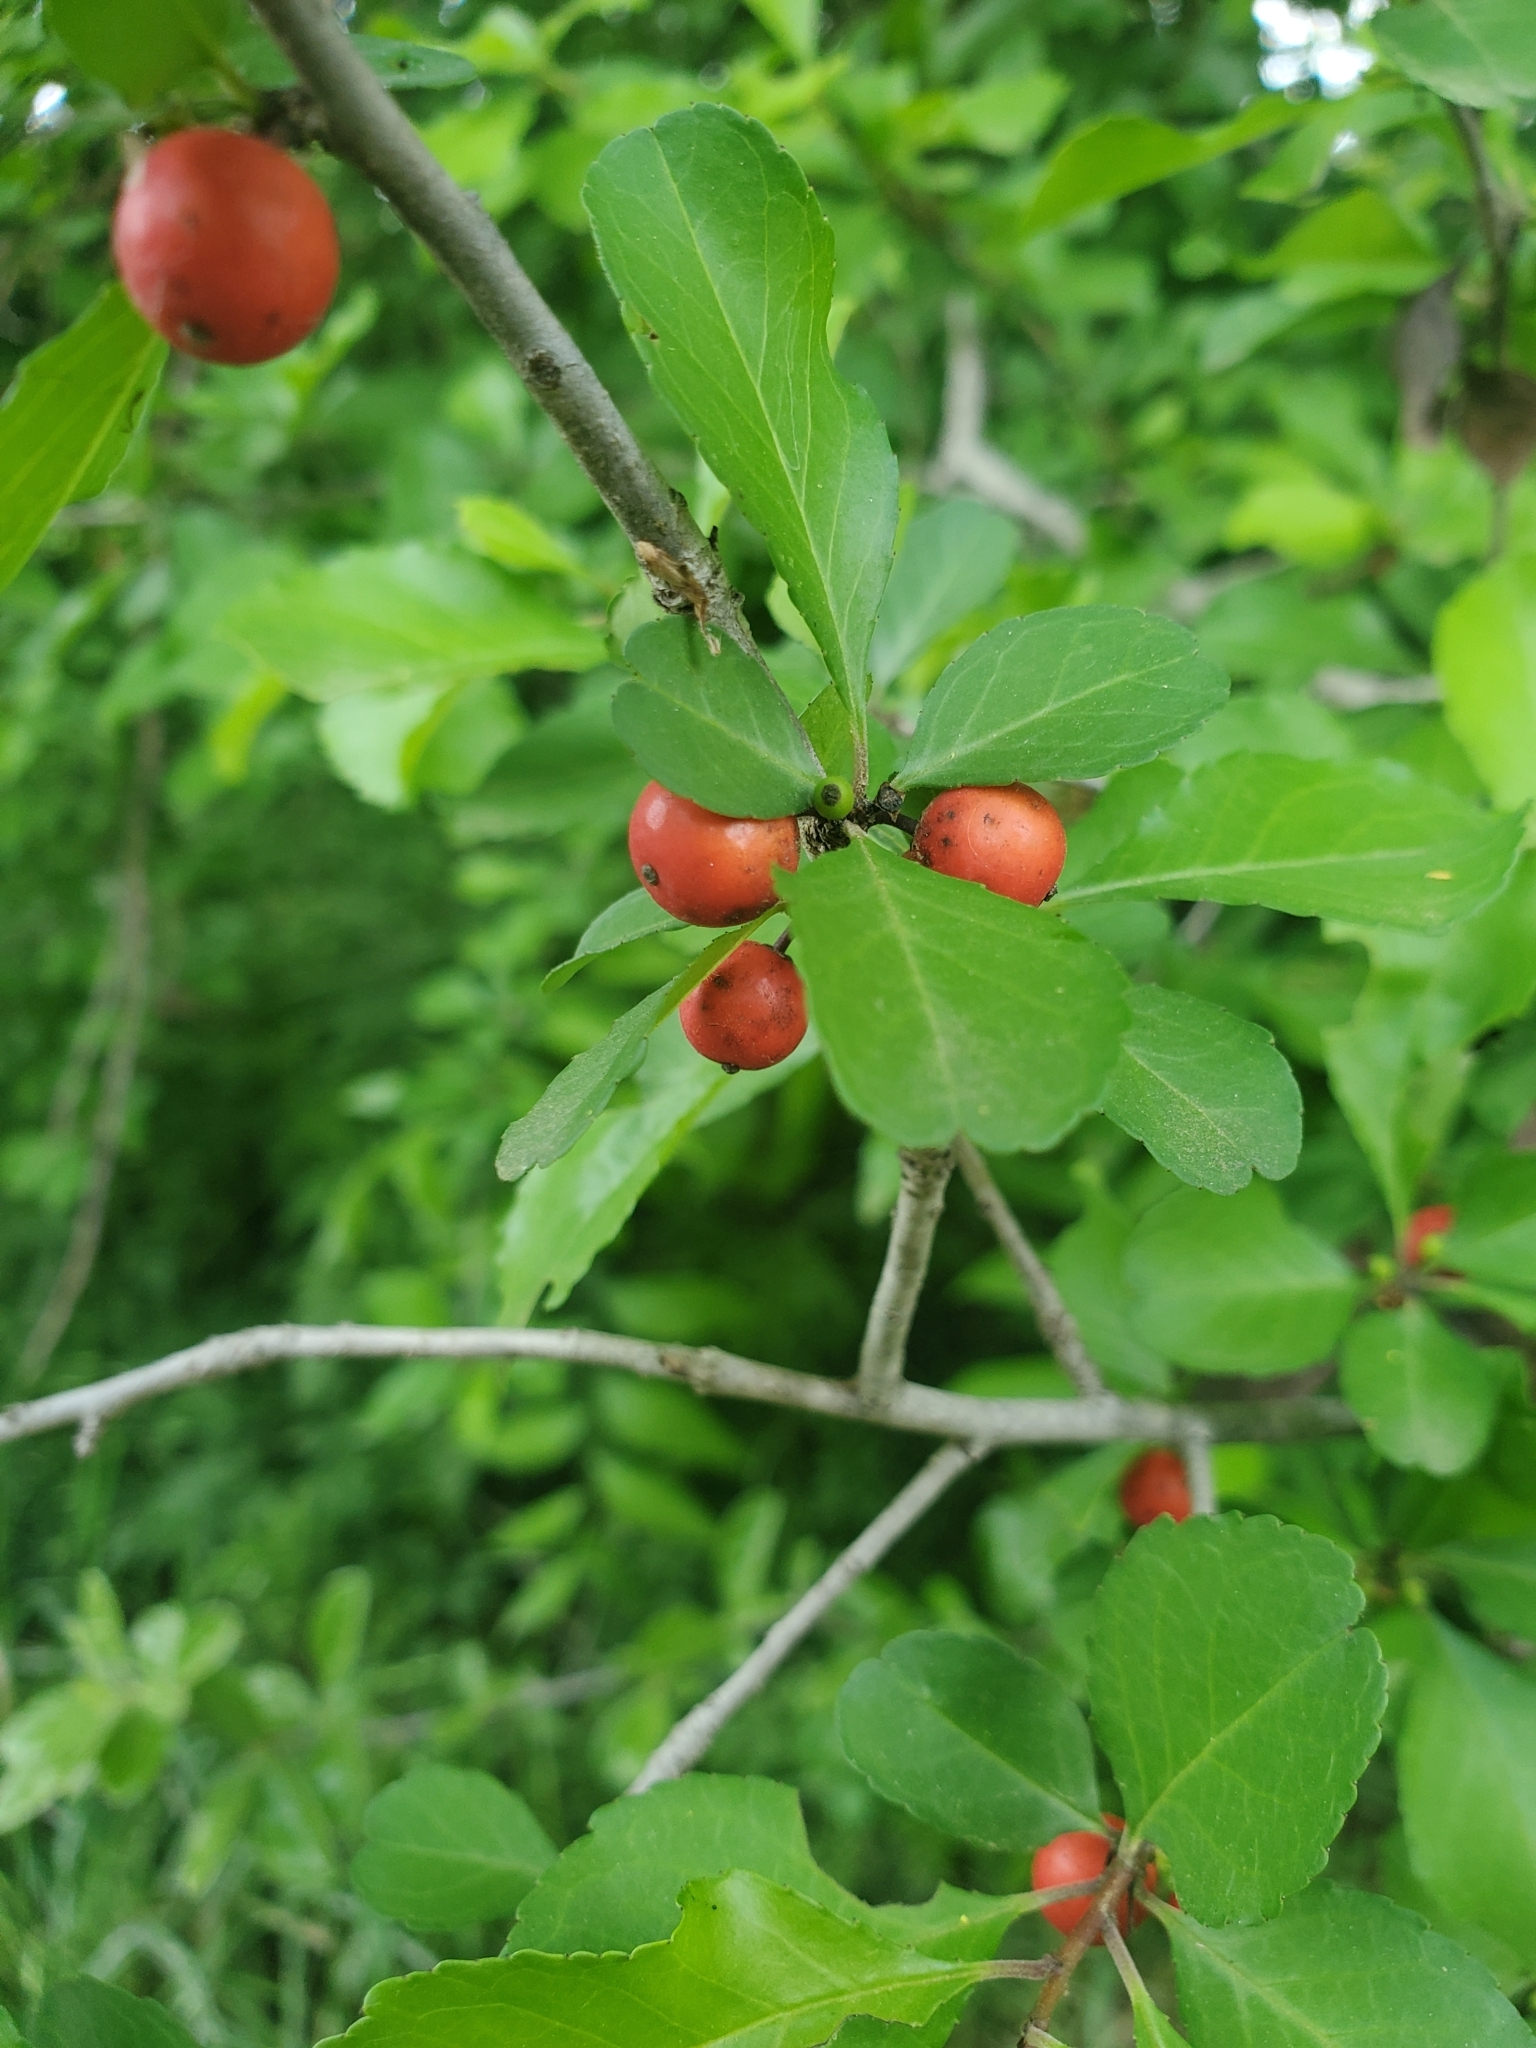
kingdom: Plantae
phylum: Tracheophyta
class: Magnoliopsida
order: Aquifoliales
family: Aquifoliaceae
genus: Ilex
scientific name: Ilex decidua
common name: Possum-haw
